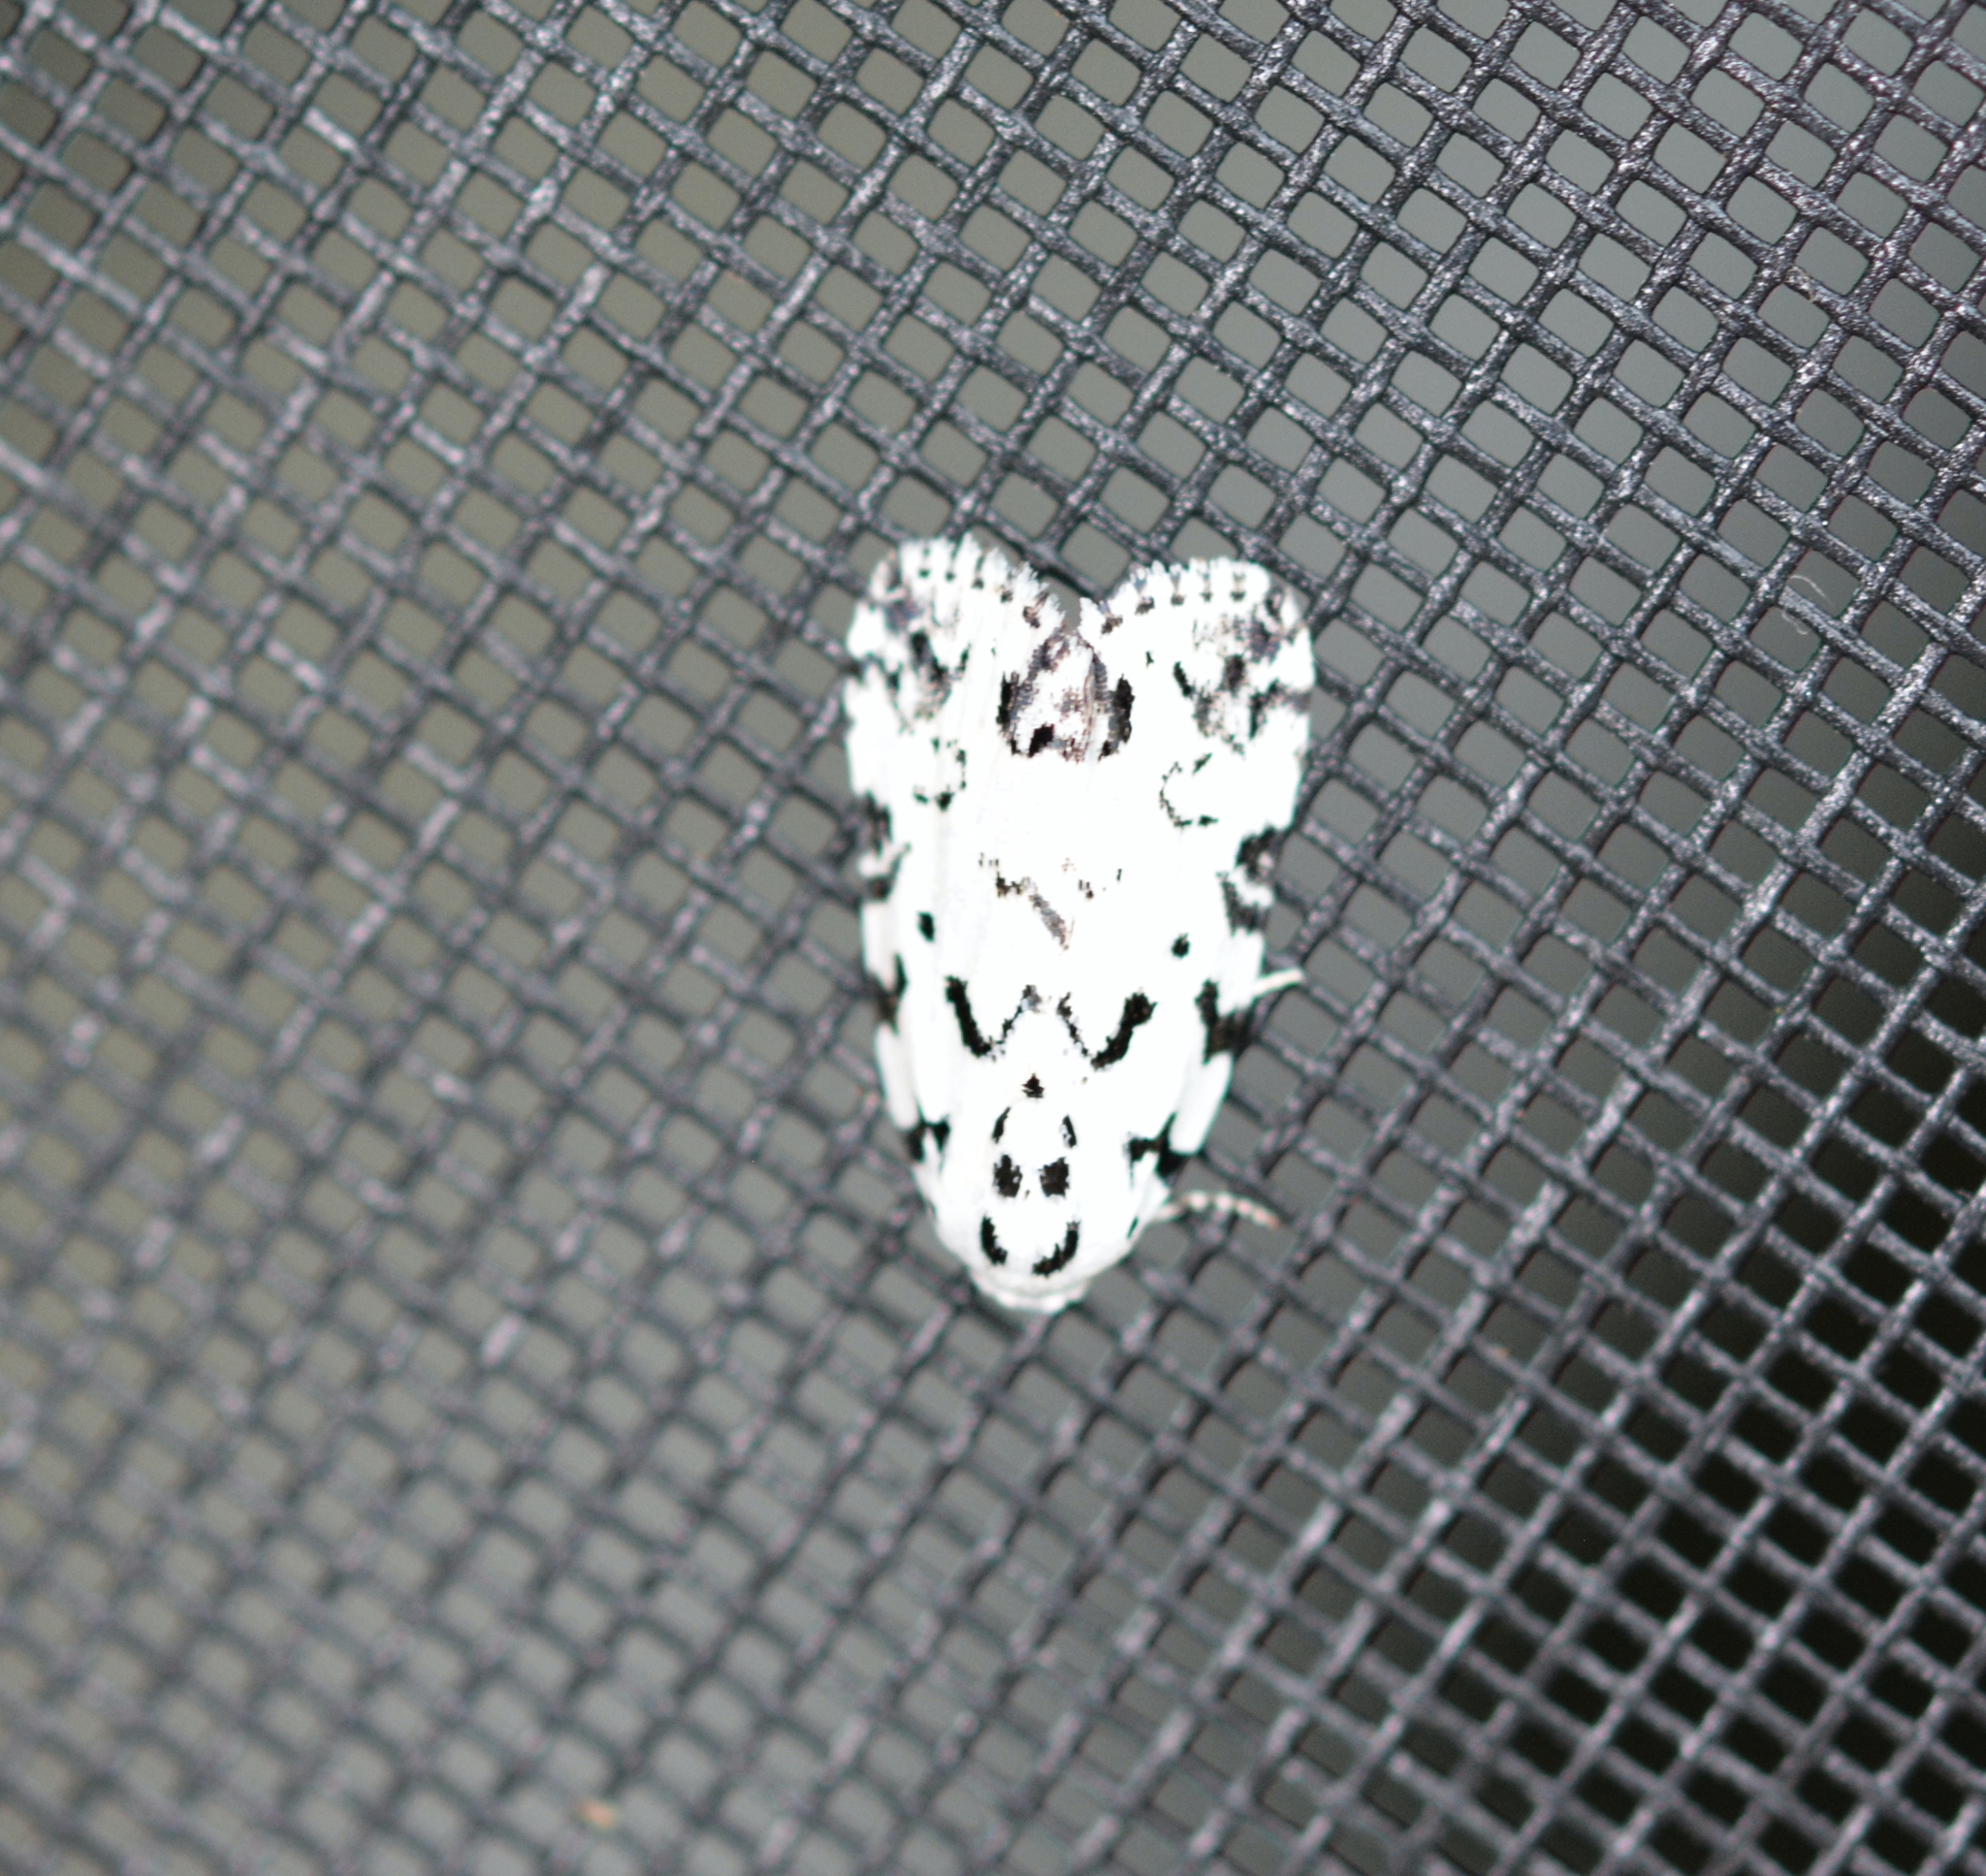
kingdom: Animalia
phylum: Arthropoda
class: Insecta
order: Lepidoptera
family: Noctuidae
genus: Polygrammate
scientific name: Polygrammate hebraeicum
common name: Hebrew moth
